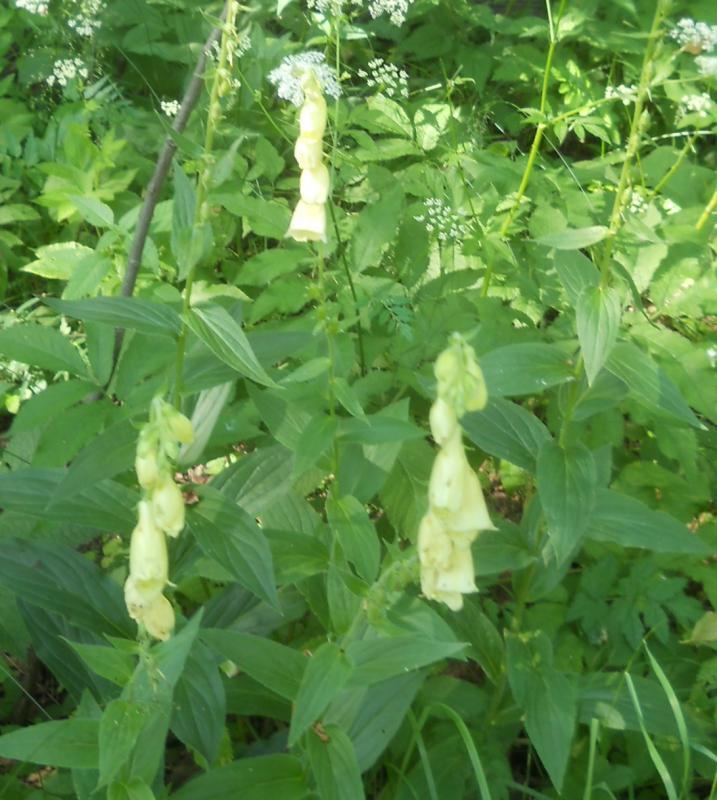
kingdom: Plantae
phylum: Tracheophyta
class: Magnoliopsida
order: Lamiales
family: Plantaginaceae
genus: Digitalis
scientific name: Digitalis grandiflora
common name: Yellow foxglove
